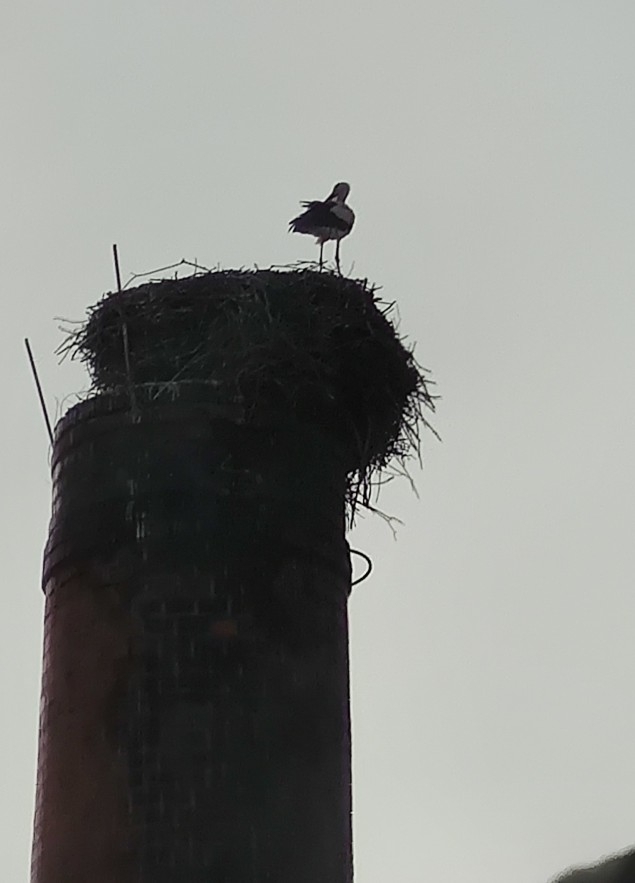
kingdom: Animalia
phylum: Chordata
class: Aves
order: Ciconiiformes
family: Ciconiidae
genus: Ciconia
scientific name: Ciconia ciconia
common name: White stork
